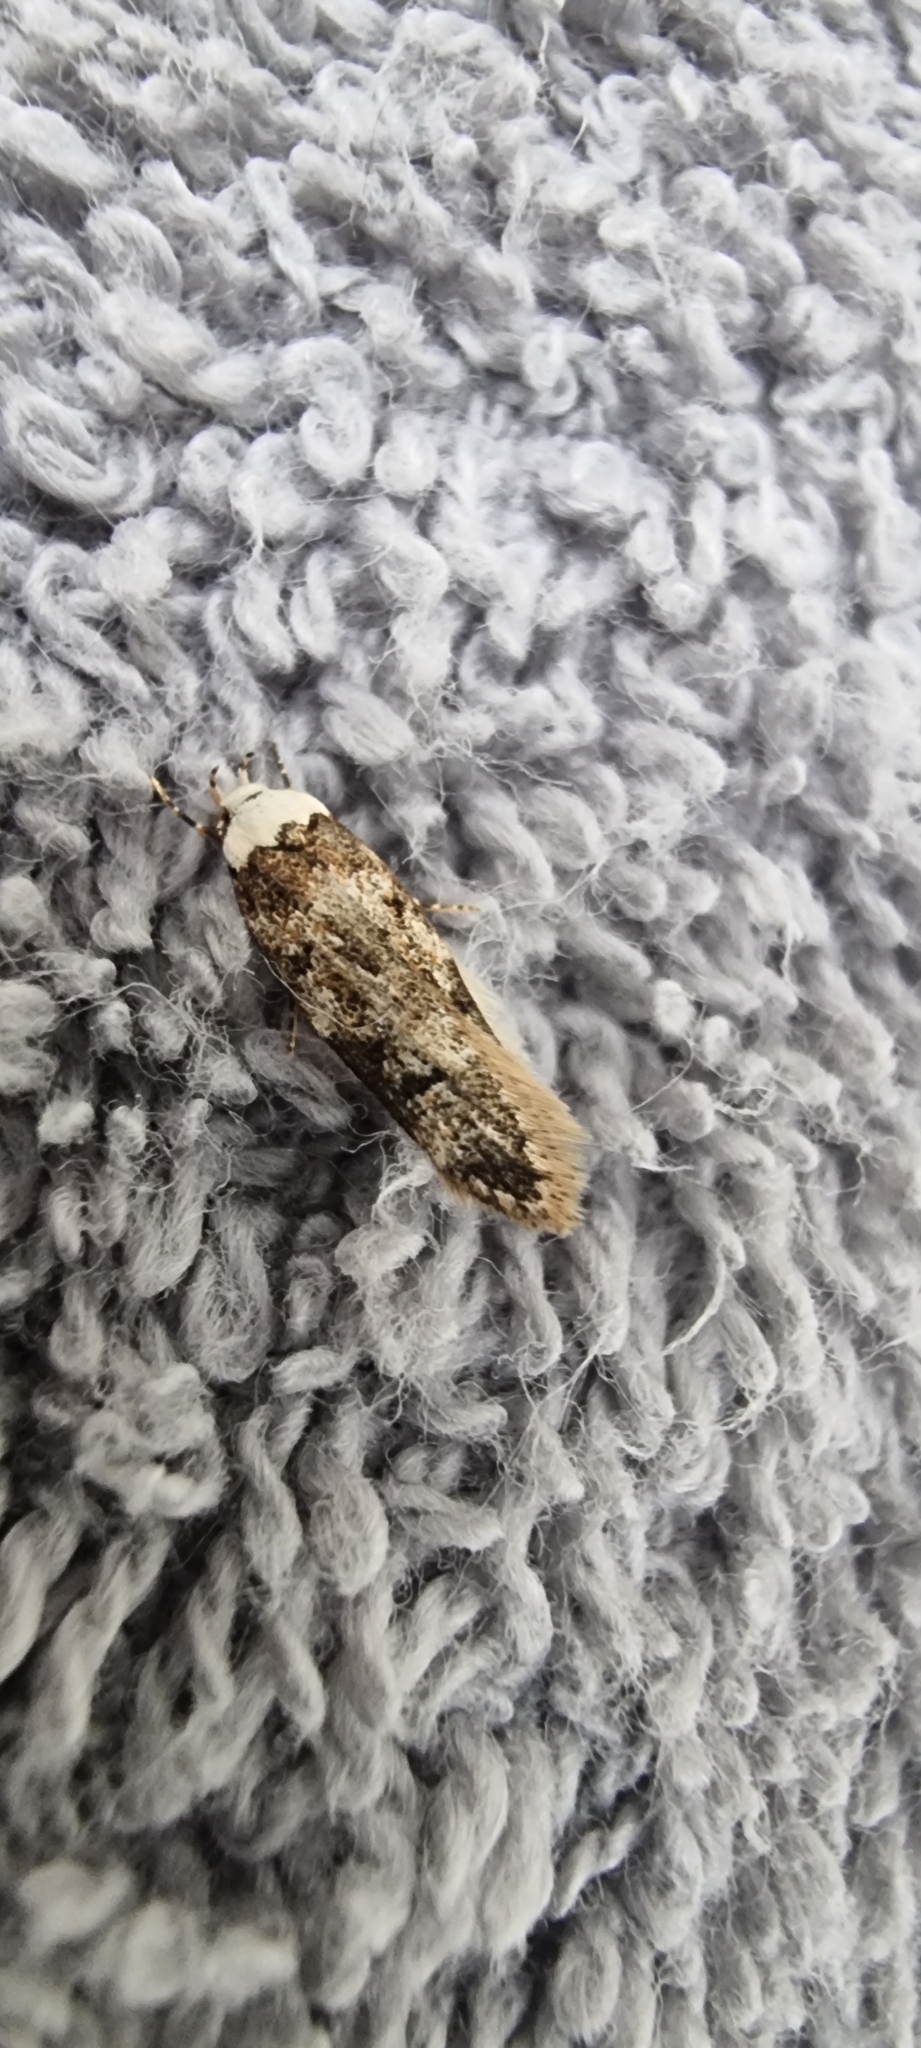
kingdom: Animalia
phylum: Arthropoda
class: Insecta
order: Lepidoptera
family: Oecophoridae
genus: Endrosis
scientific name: Endrosis sarcitrella
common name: White-shouldered house moth
